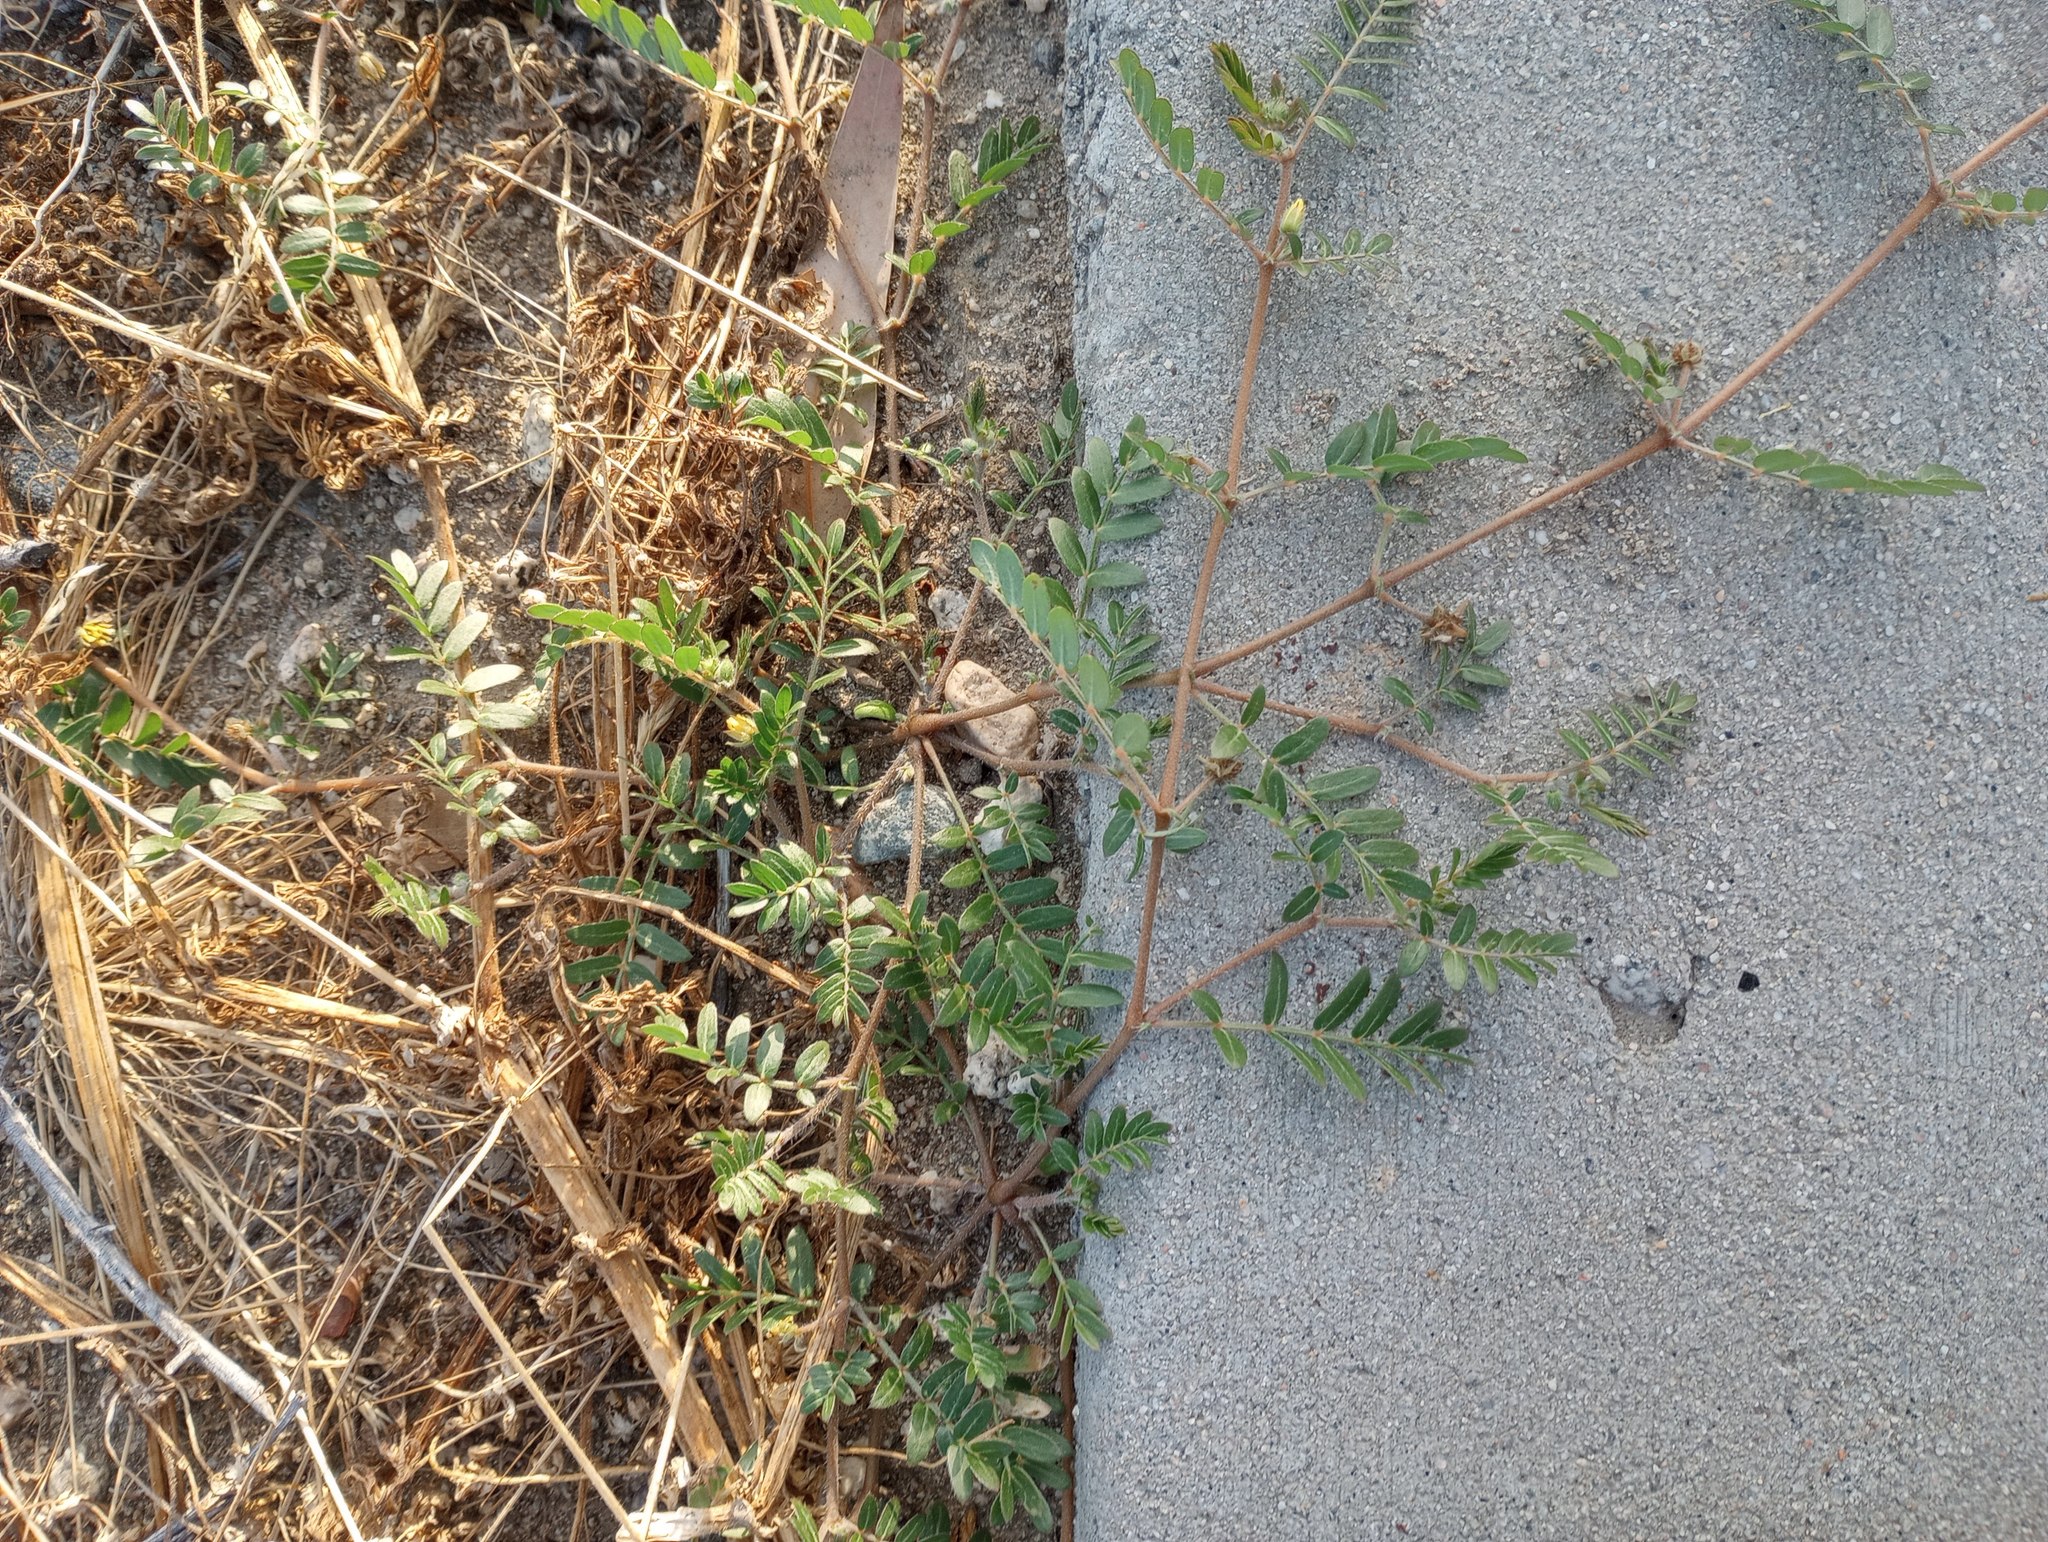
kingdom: Plantae
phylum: Tracheophyta
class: Magnoliopsida
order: Zygophyllales
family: Zygophyllaceae
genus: Tribulus
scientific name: Tribulus terrestris
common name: Puncturevine
